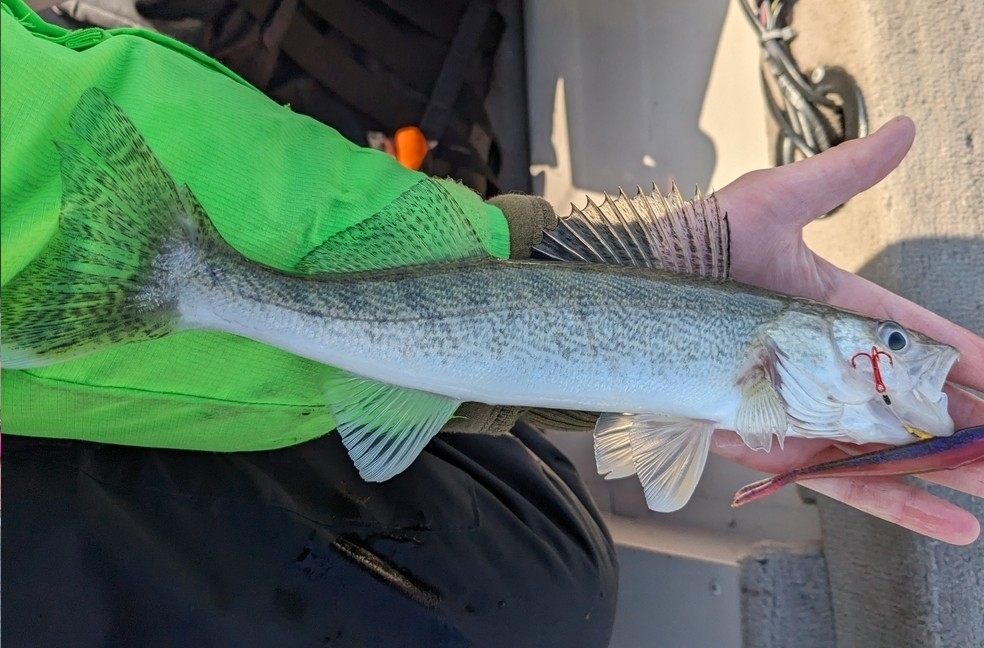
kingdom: Animalia
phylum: Chordata
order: Perciformes
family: Percidae
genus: Sander
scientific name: Sander vitreus
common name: Walleye
